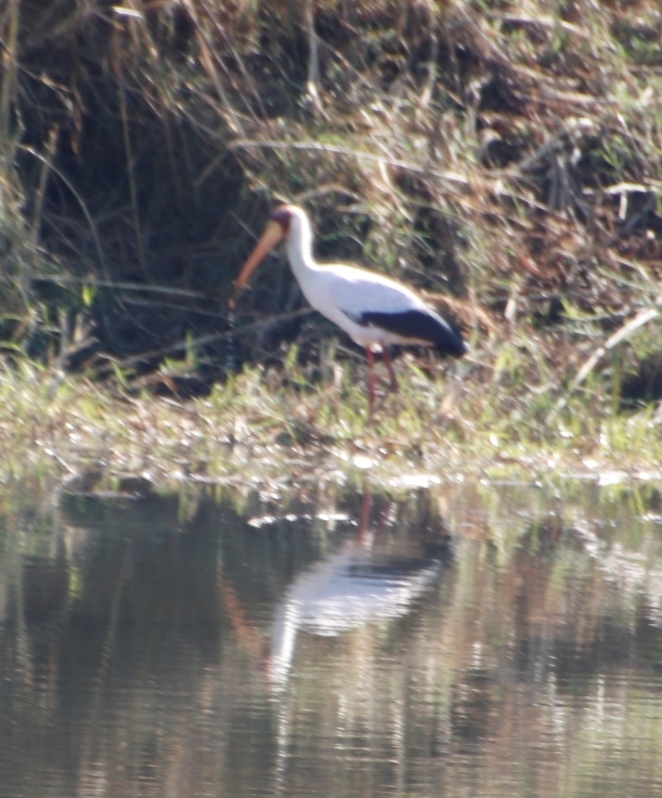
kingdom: Animalia
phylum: Chordata
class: Aves
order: Ciconiiformes
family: Ciconiidae
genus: Mycteria
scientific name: Mycteria ibis
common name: Yellow-billed stork
